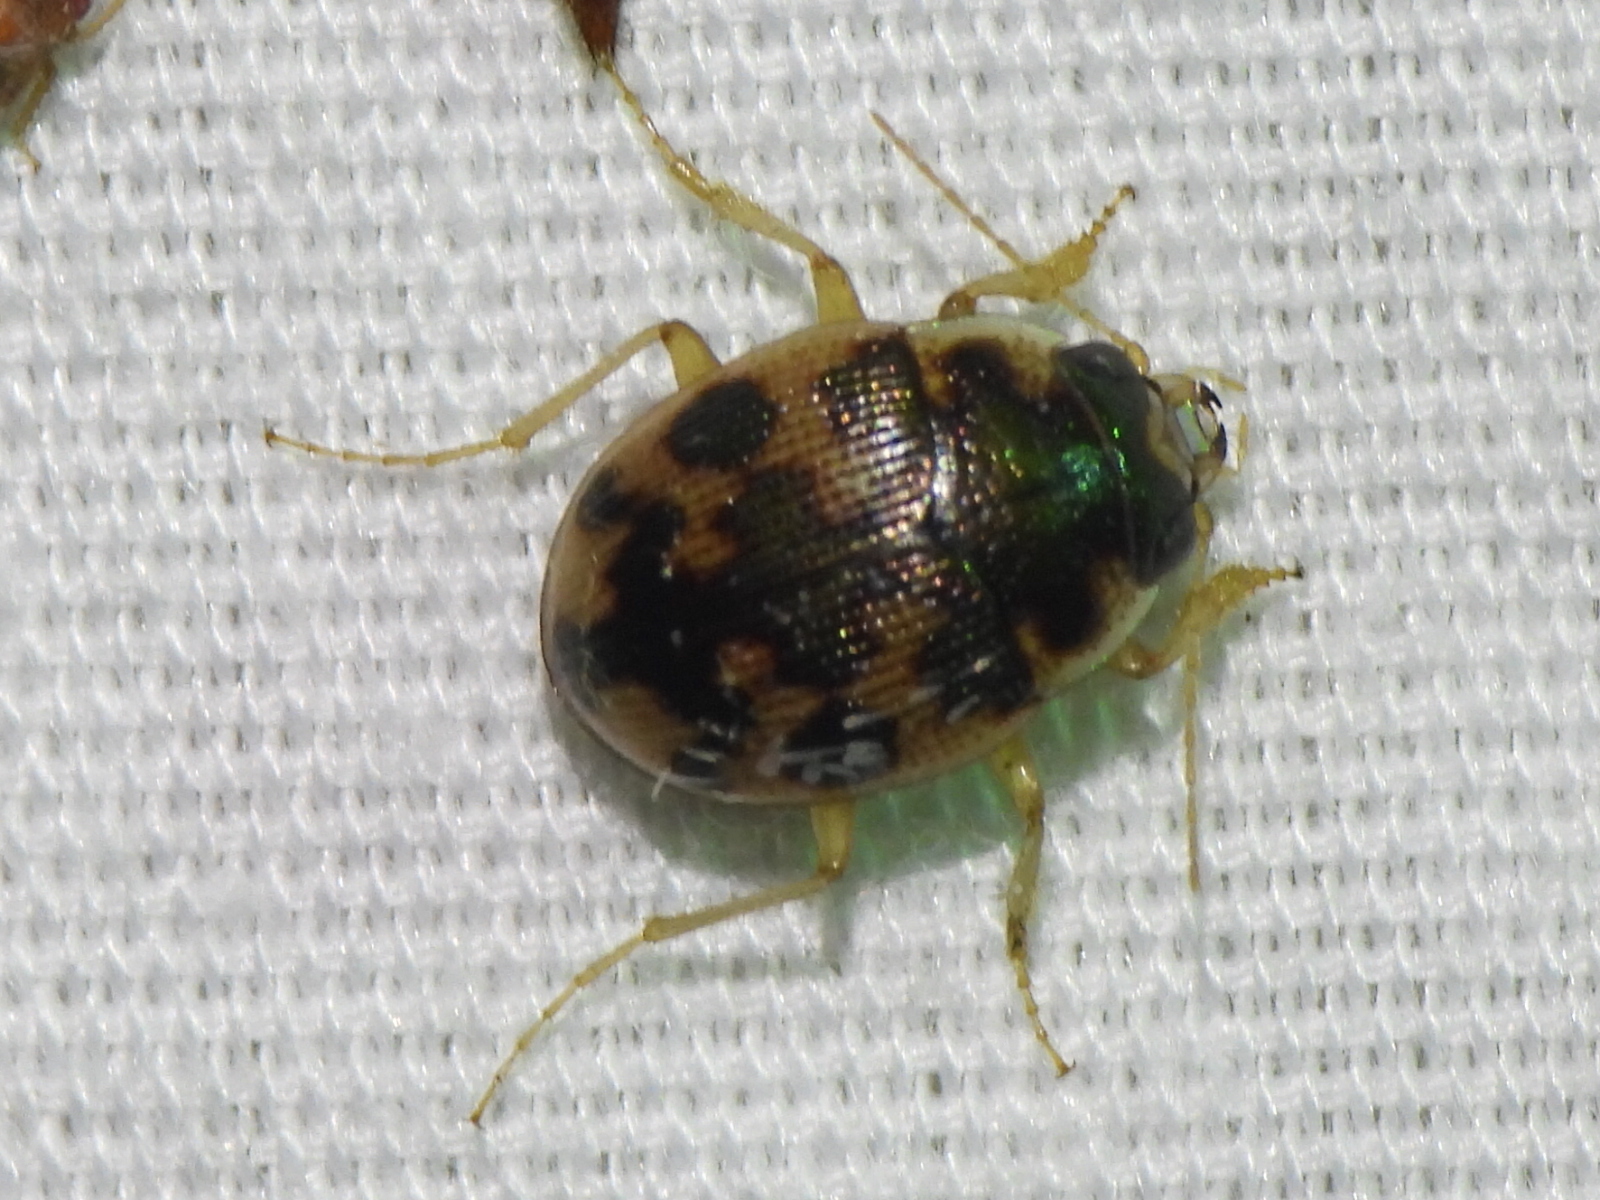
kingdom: Animalia
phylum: Arthropoda
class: Insecta
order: Coleoptera
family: Carabidae
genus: Omophron
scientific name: Omophron americanum
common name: American round sand beetle
